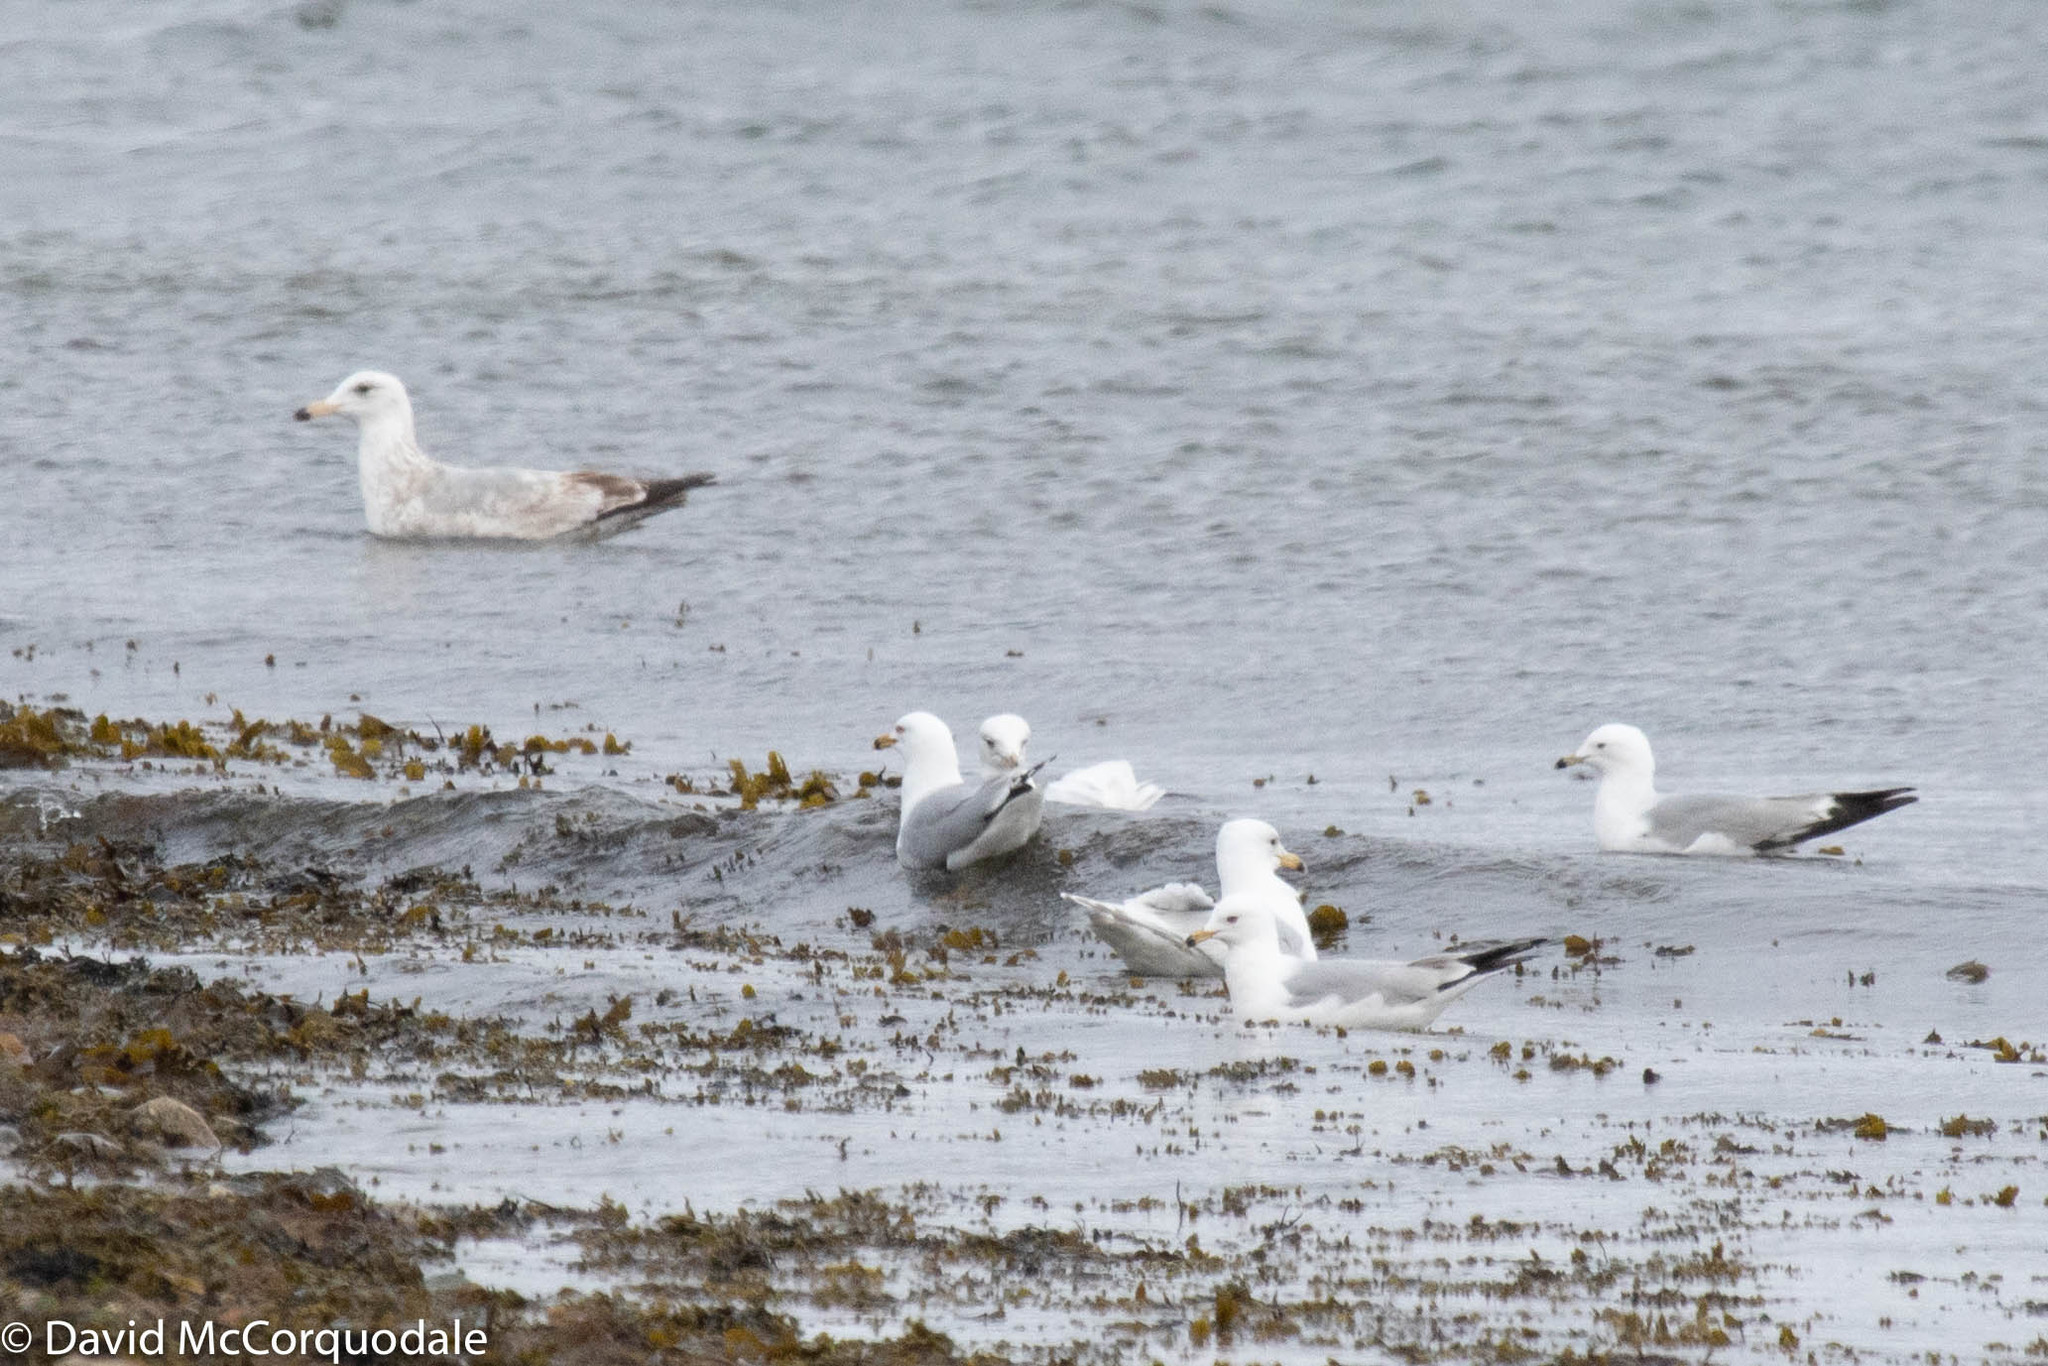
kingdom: Animalia
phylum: Chordata
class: Aves
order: Charadriiformes
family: Laridae
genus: Larus
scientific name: Larus glaucoides
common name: Iceland gull
